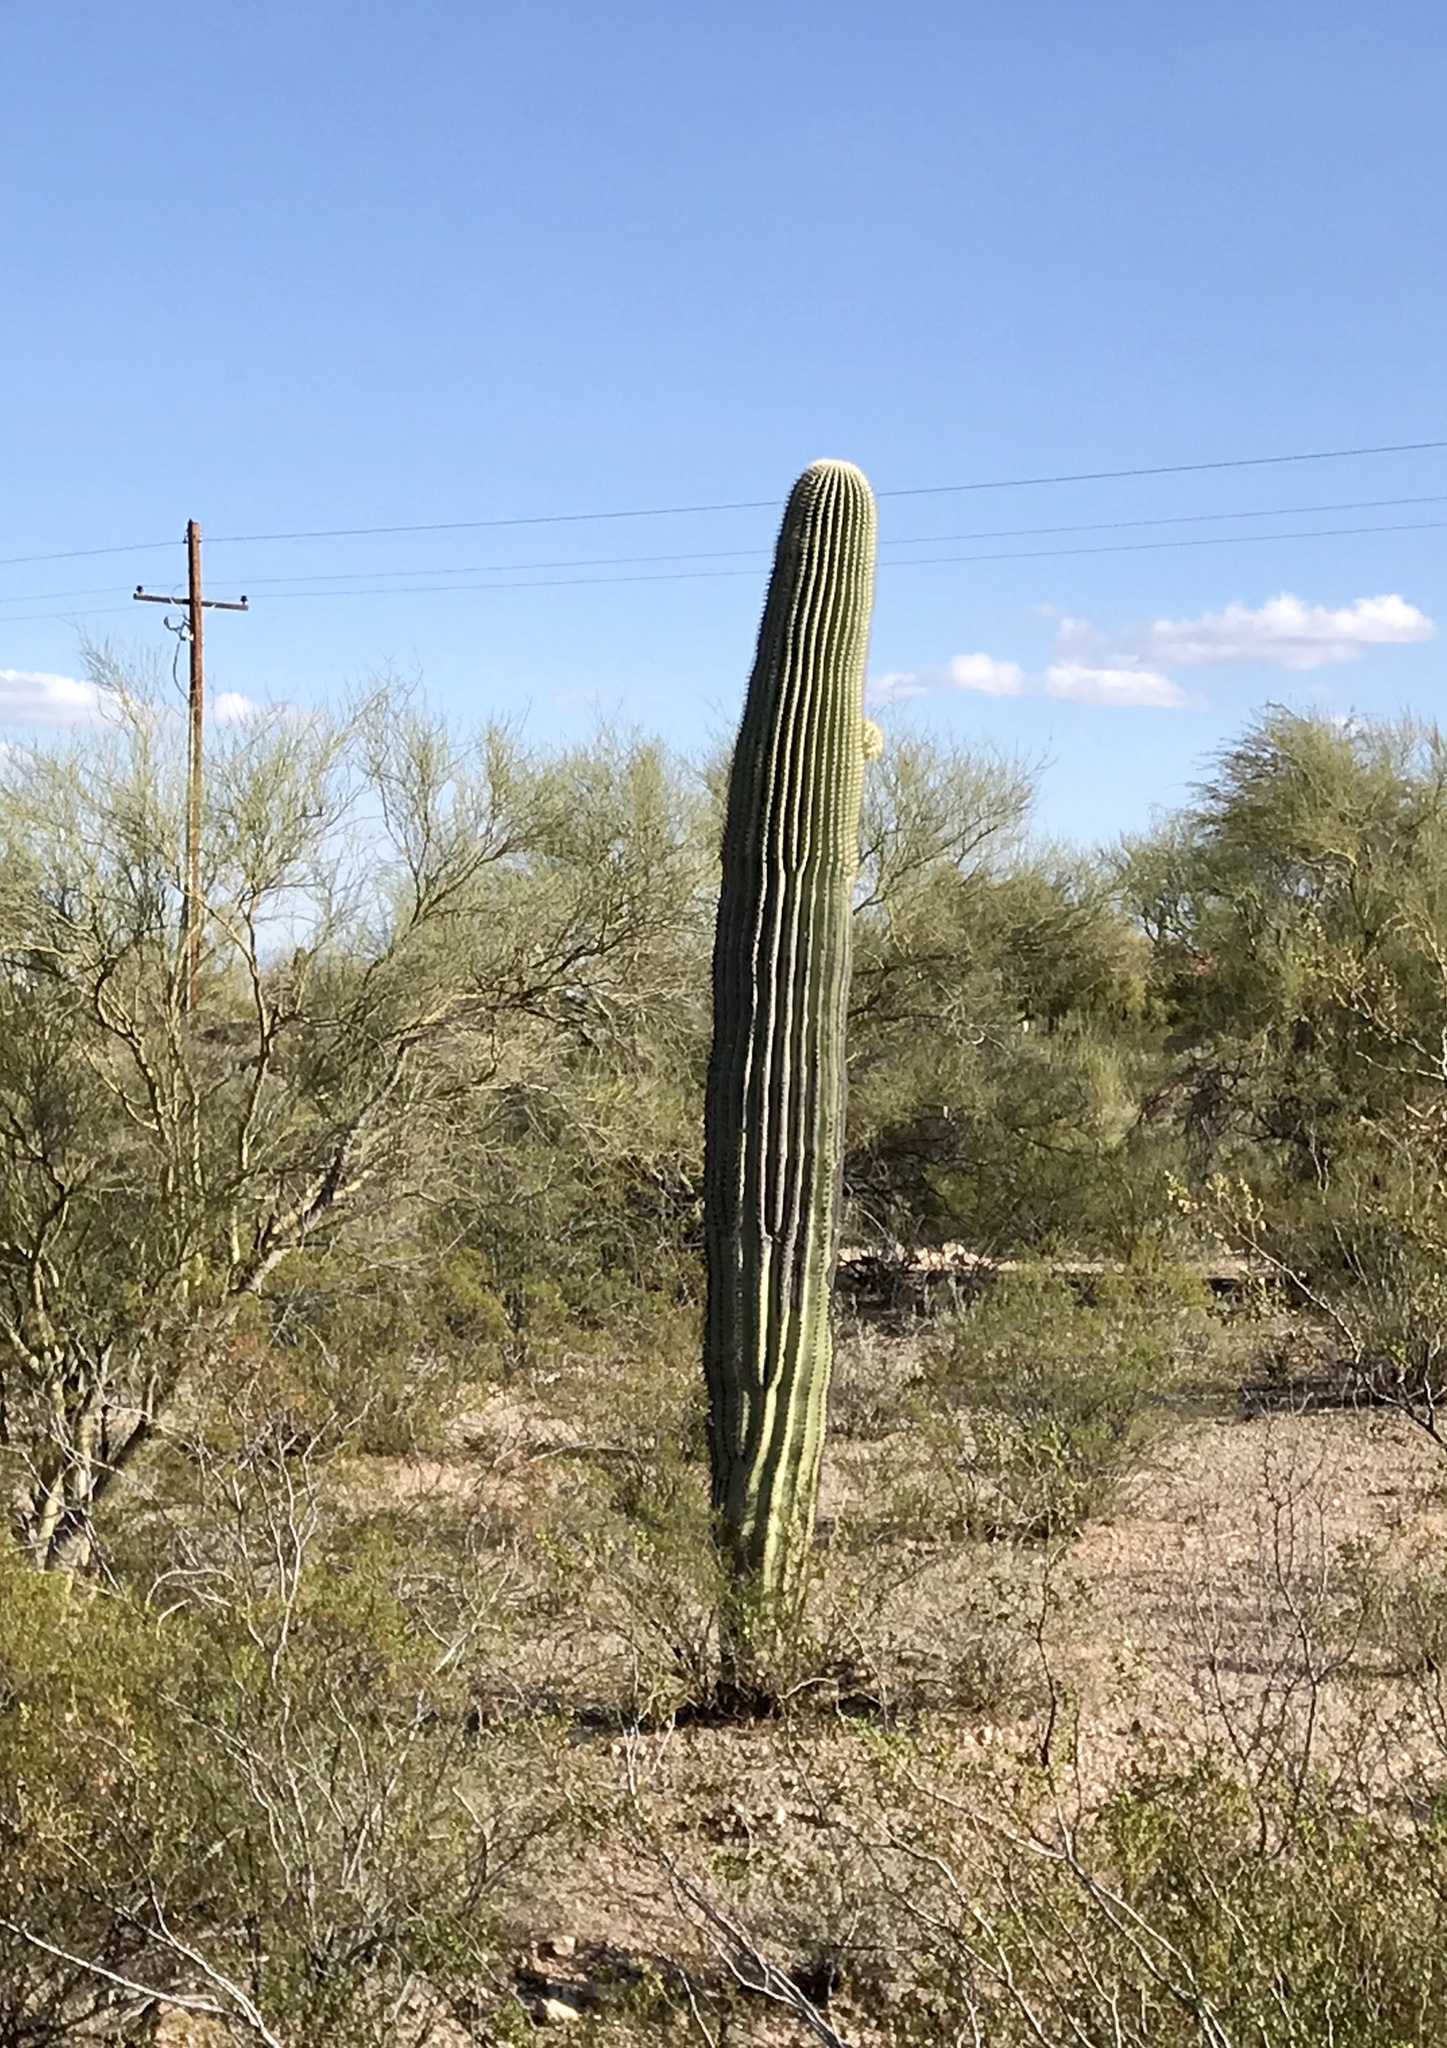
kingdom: Plantae
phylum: Tracheophyta
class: Magnoliopsida
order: Caryophyllales
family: Cactaceae
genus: Carnegiea
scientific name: Carnegiea gigantea
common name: Saguaro
